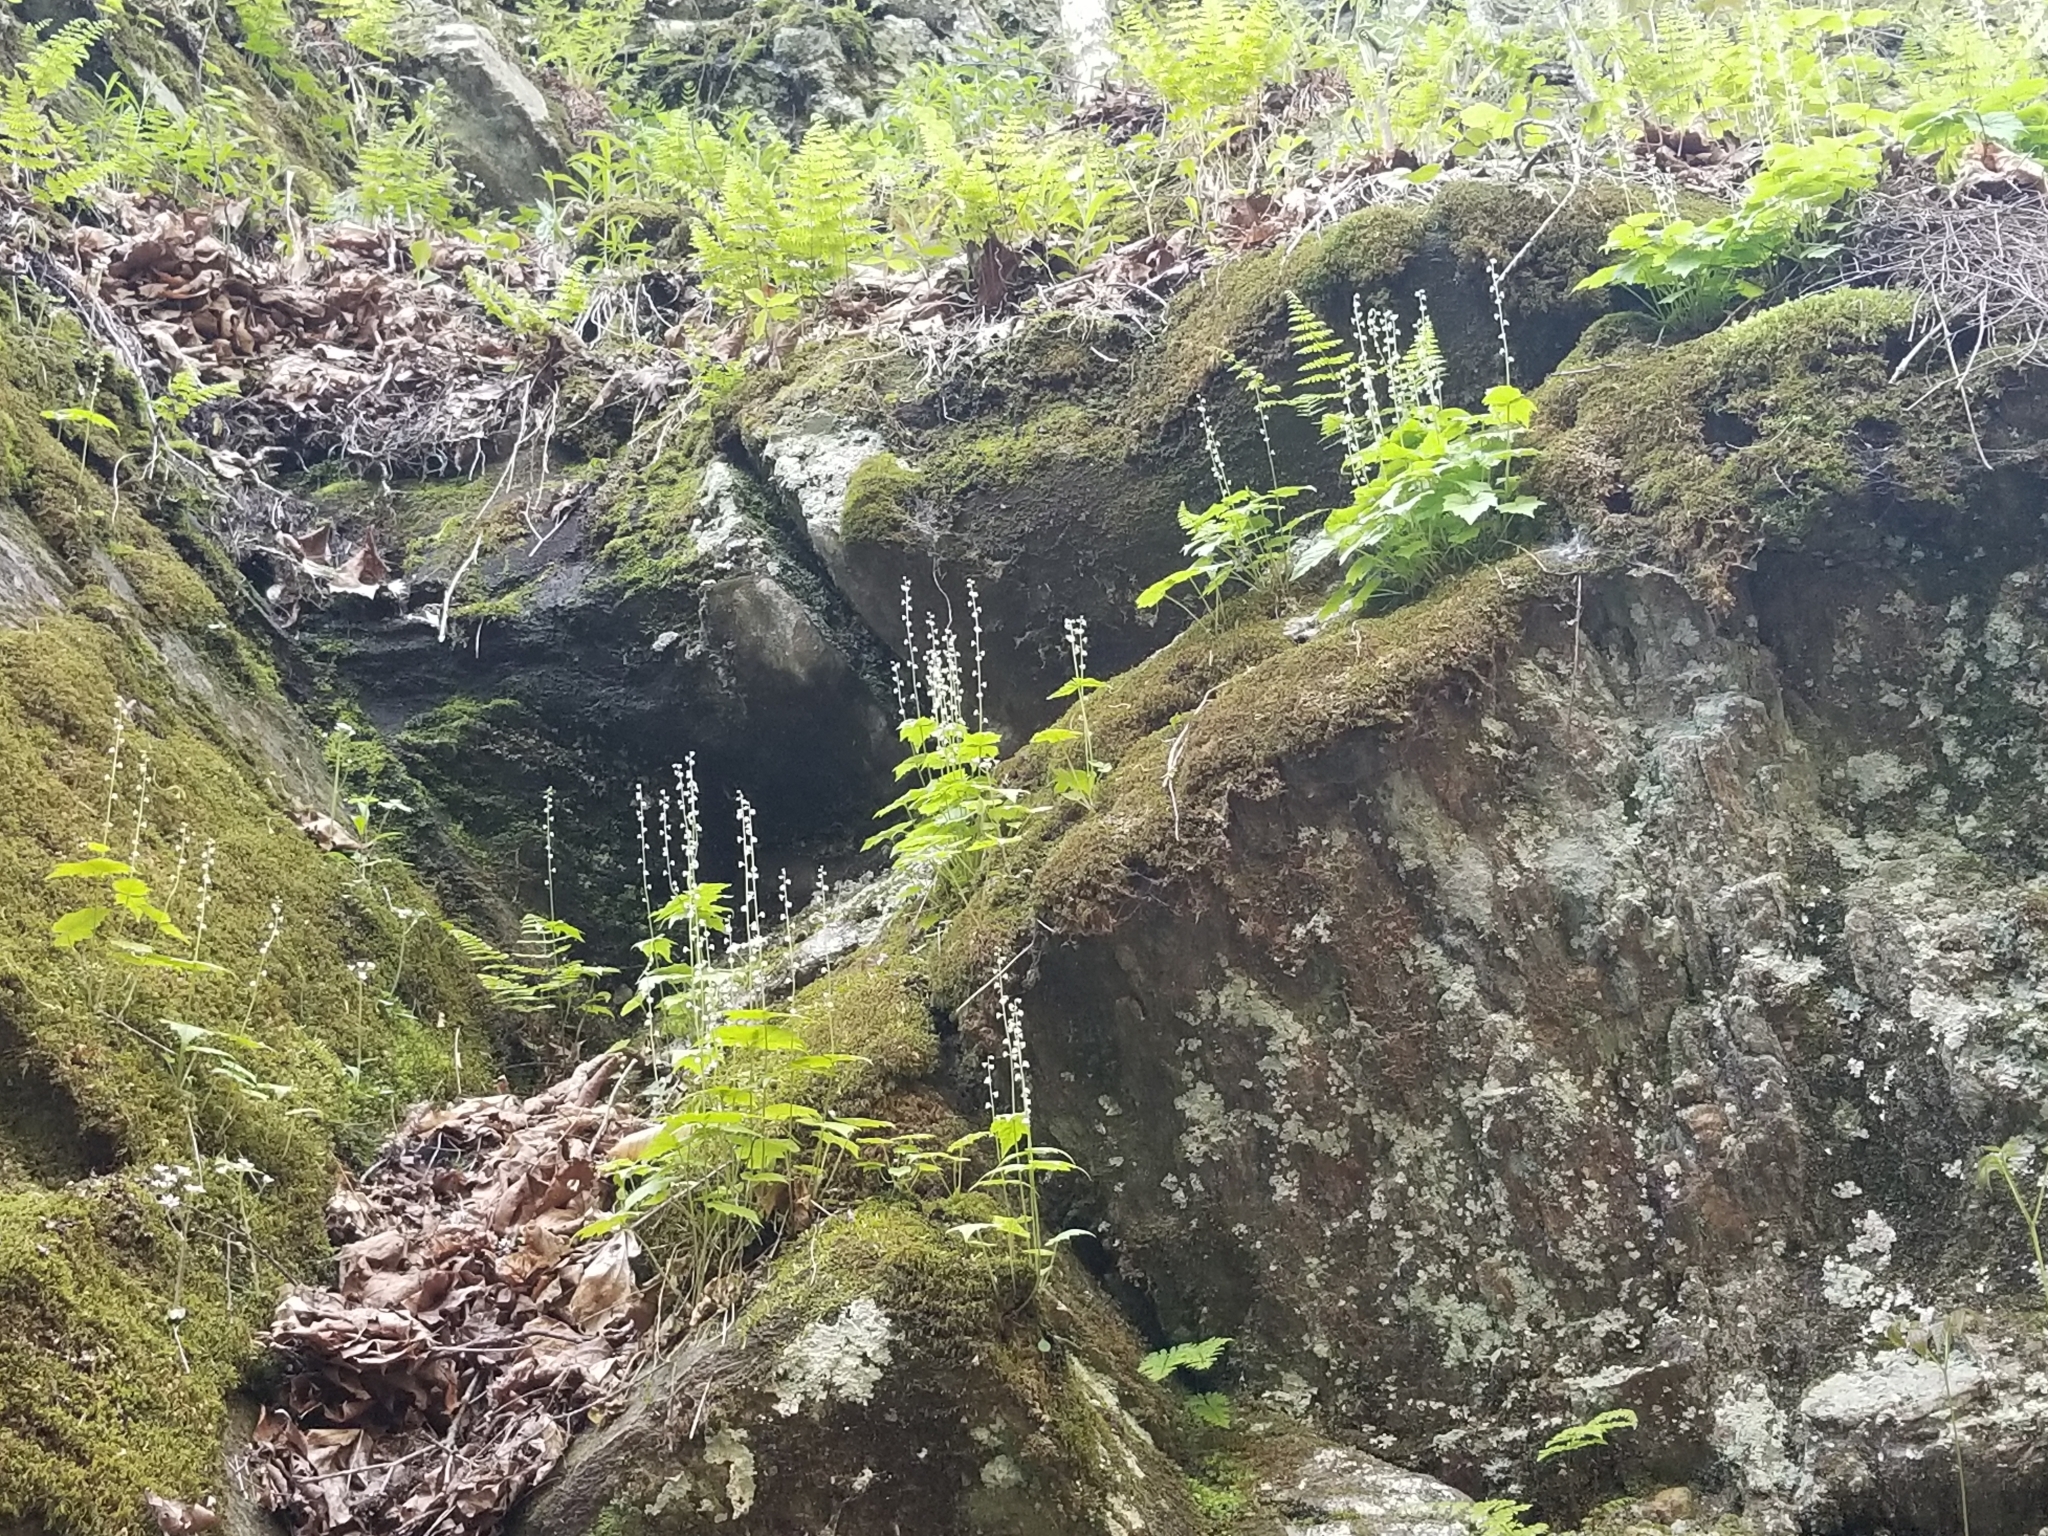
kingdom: Plantae
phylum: Tracheophyta
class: Magnoliopsida
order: Saxifragales
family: Saxifragaceae
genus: Mitella
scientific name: Mitella diphylla
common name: Coolwort
